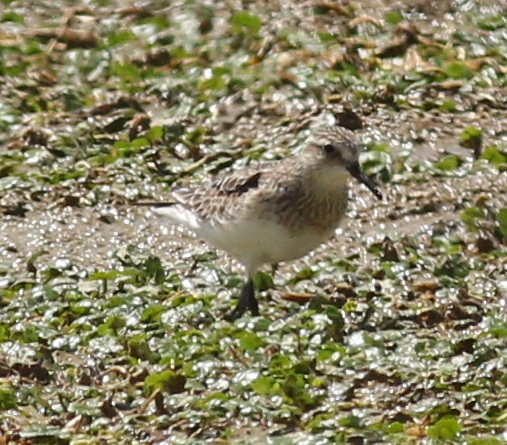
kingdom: Animalia
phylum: Chordata
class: Aves
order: Charadriiformes
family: Scolopacidae
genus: Calidris
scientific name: Calidris bairdii
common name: Baird's sandpiper
